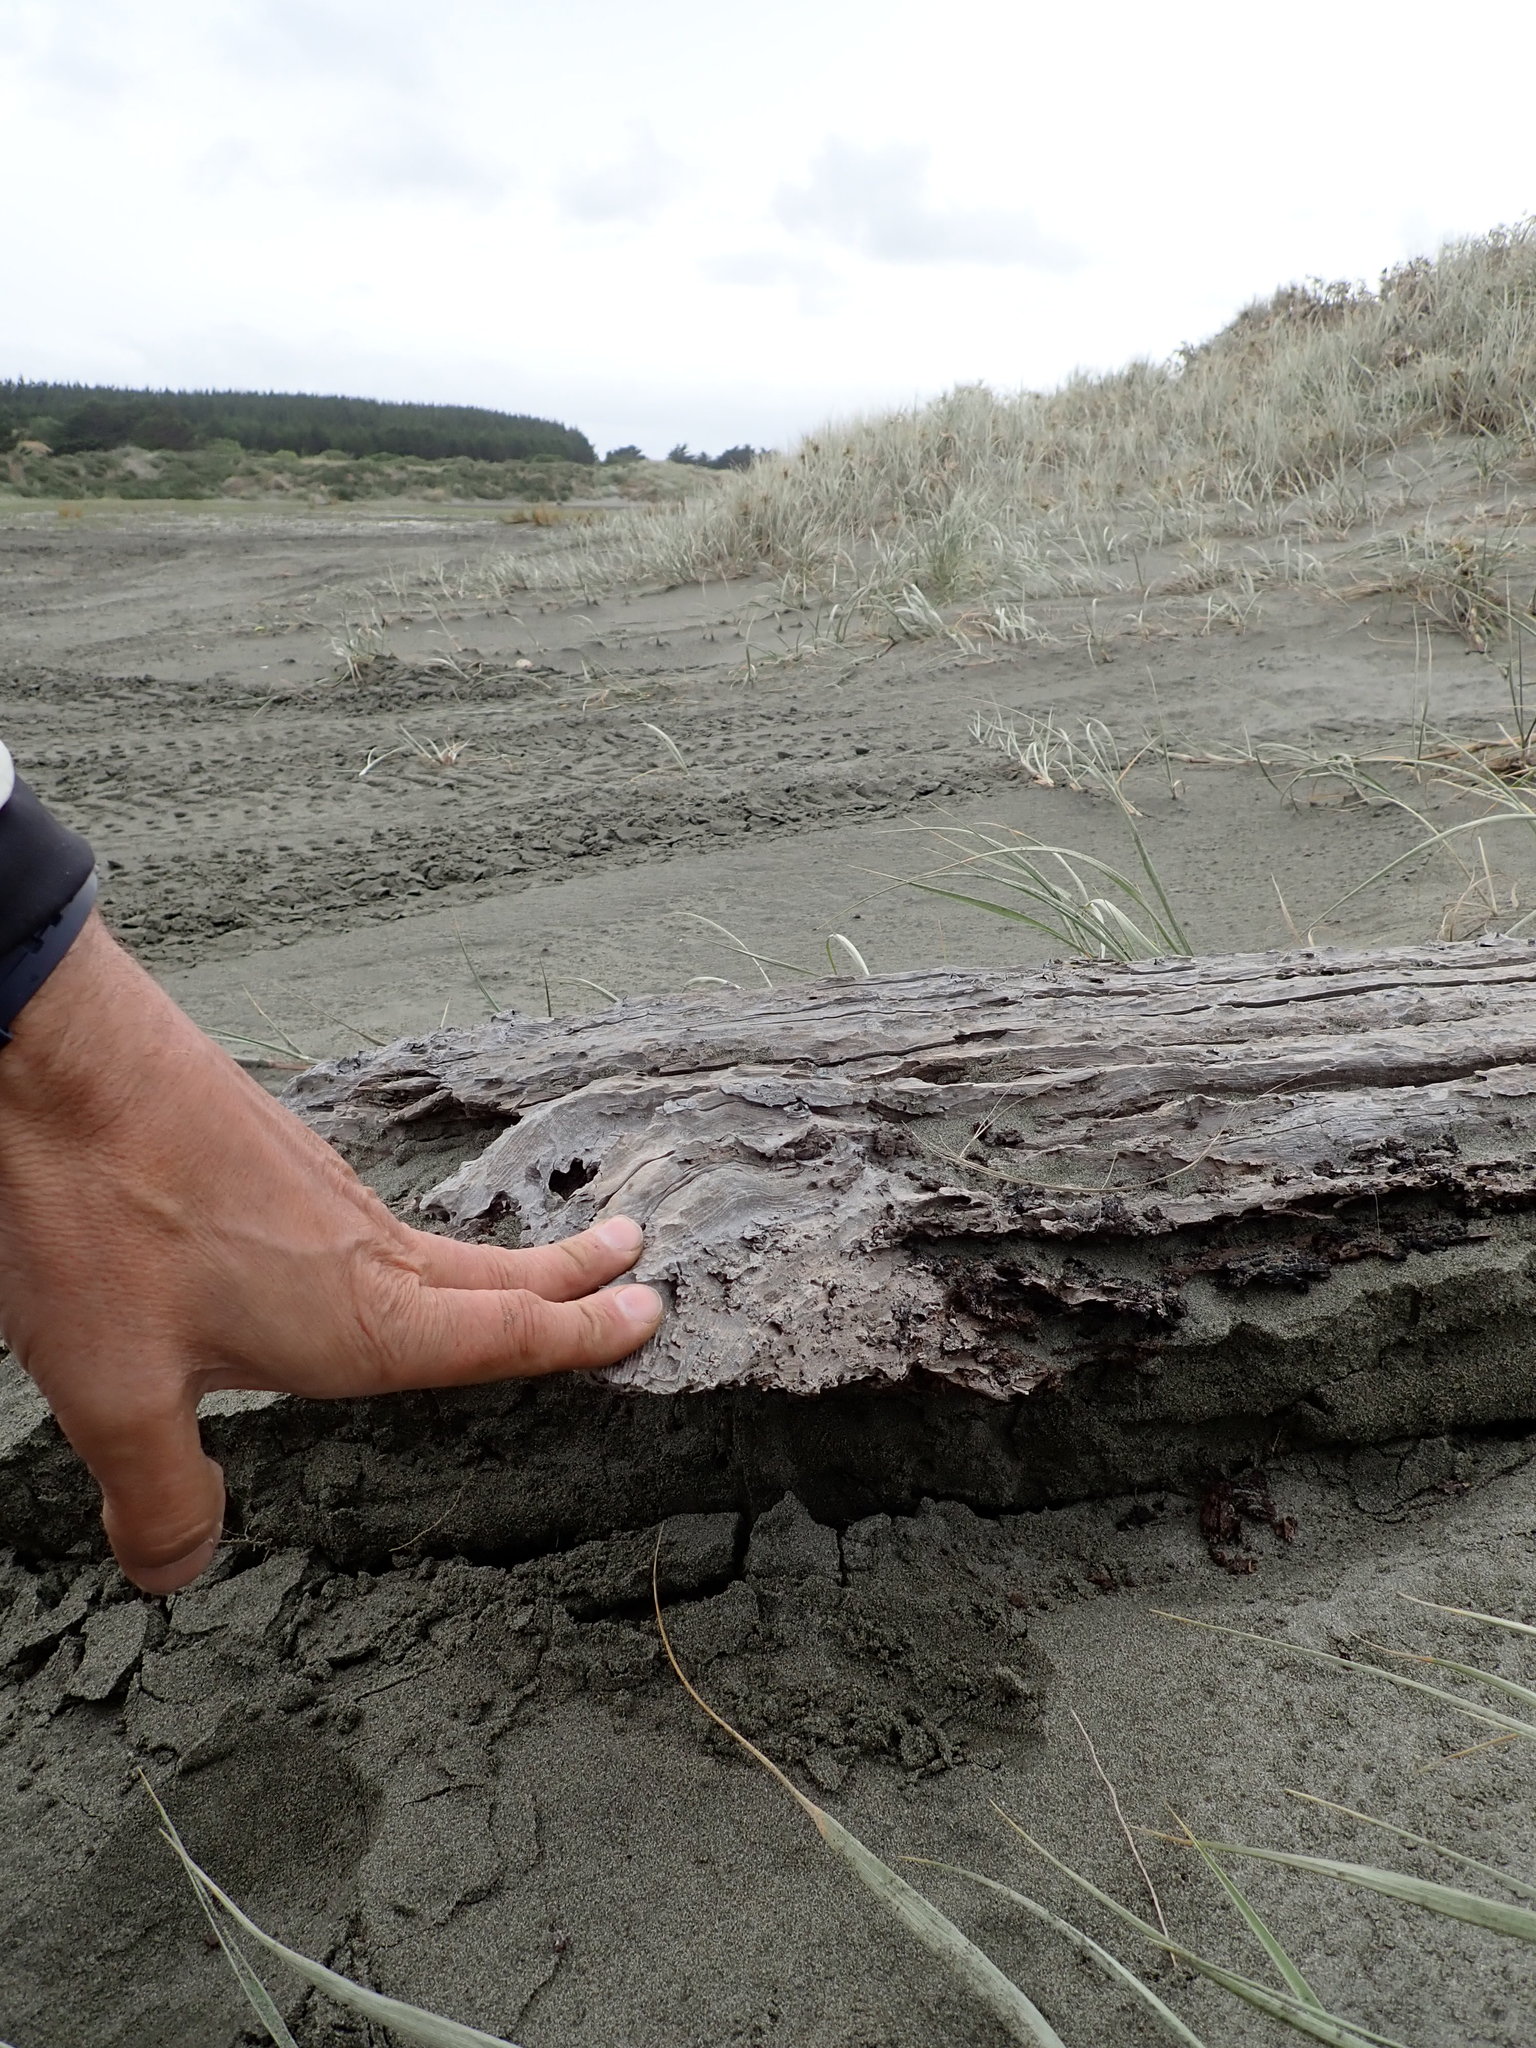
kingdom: Animalia
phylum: Arthropoda
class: Insecta
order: Dermaptera
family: Anisolabididae
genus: Anisolabis
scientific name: Anisolabis littorea
